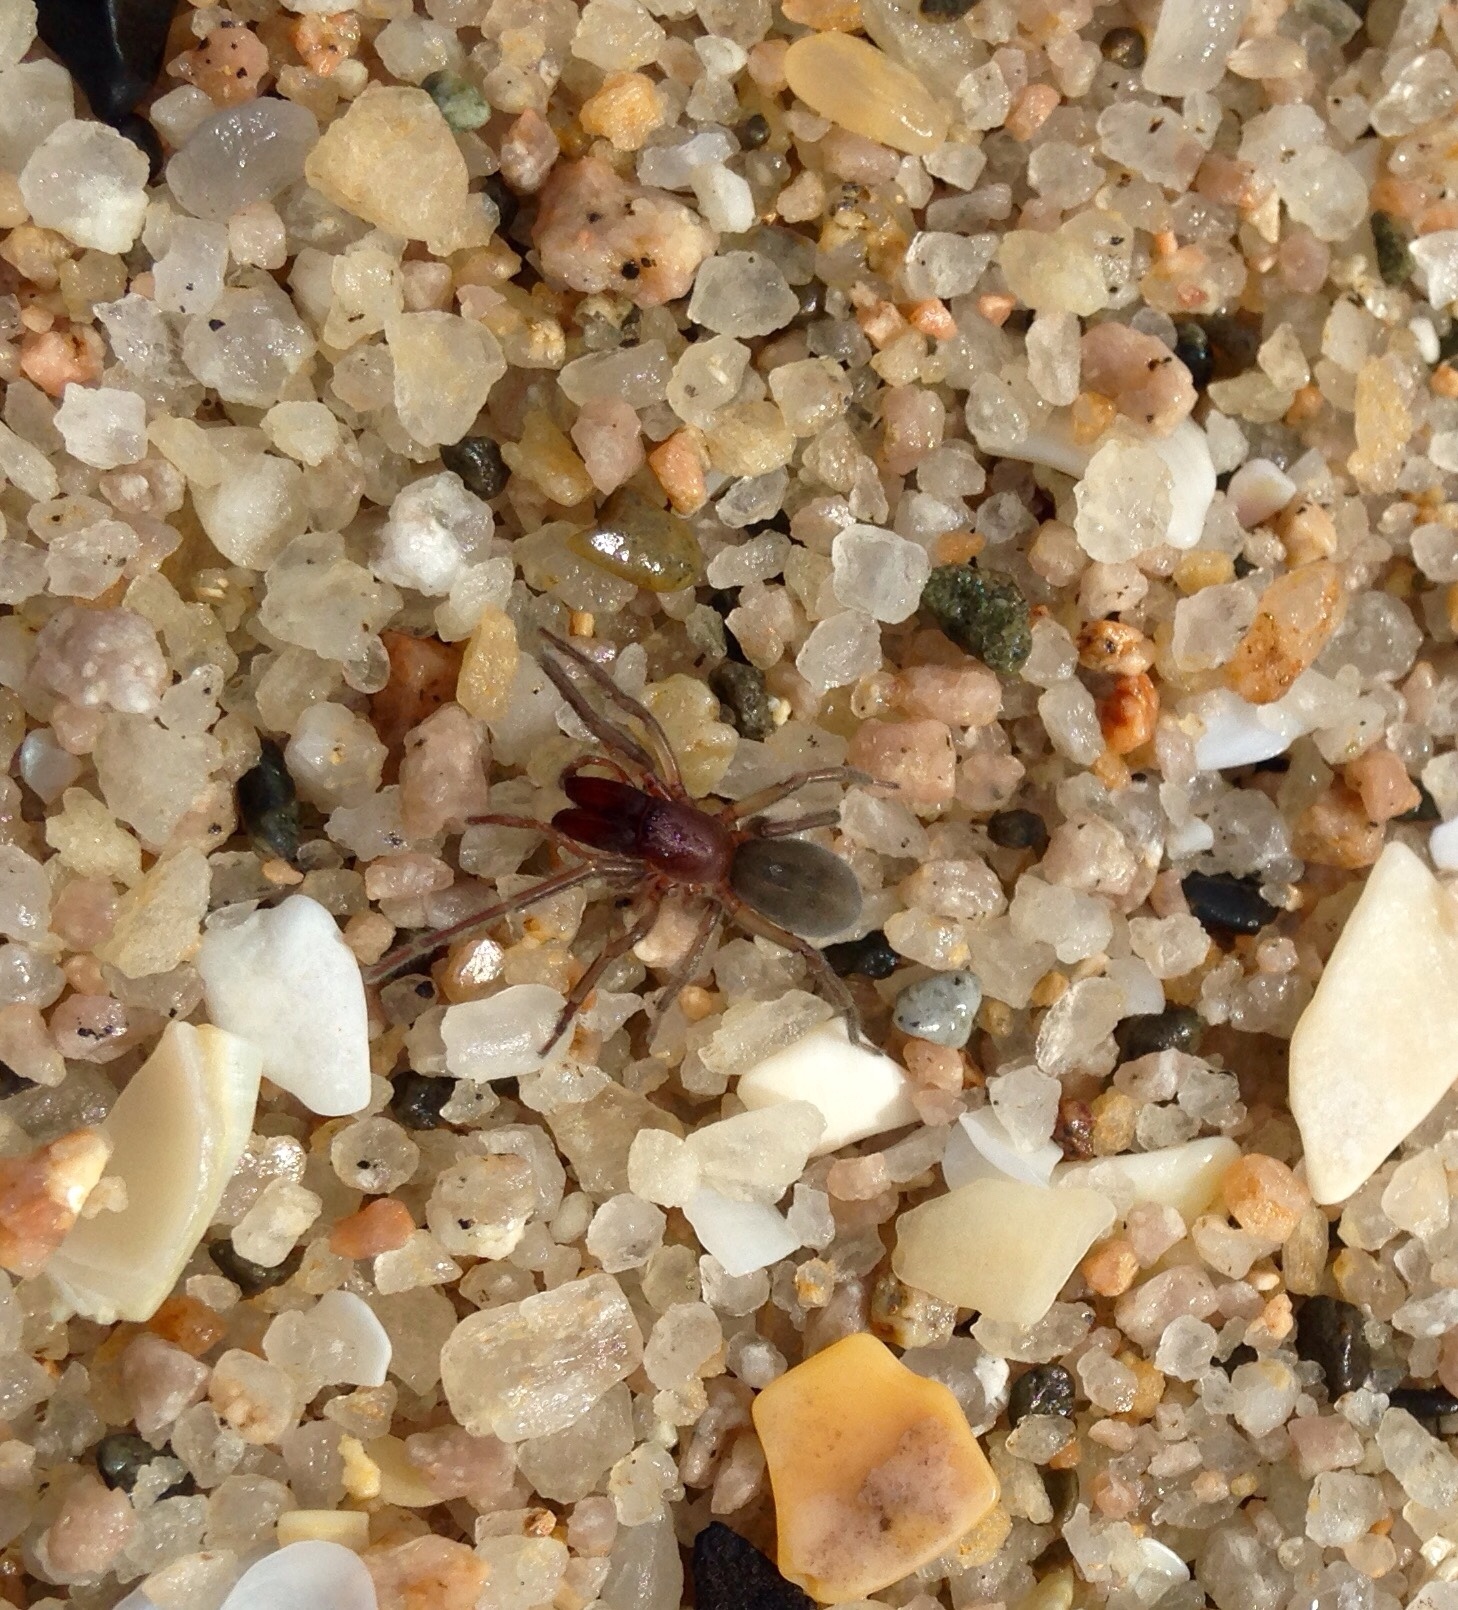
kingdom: Animalia
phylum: Arthropoda
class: Arachnida
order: Araneae
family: Desidae
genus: Desis
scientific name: Desis marina
